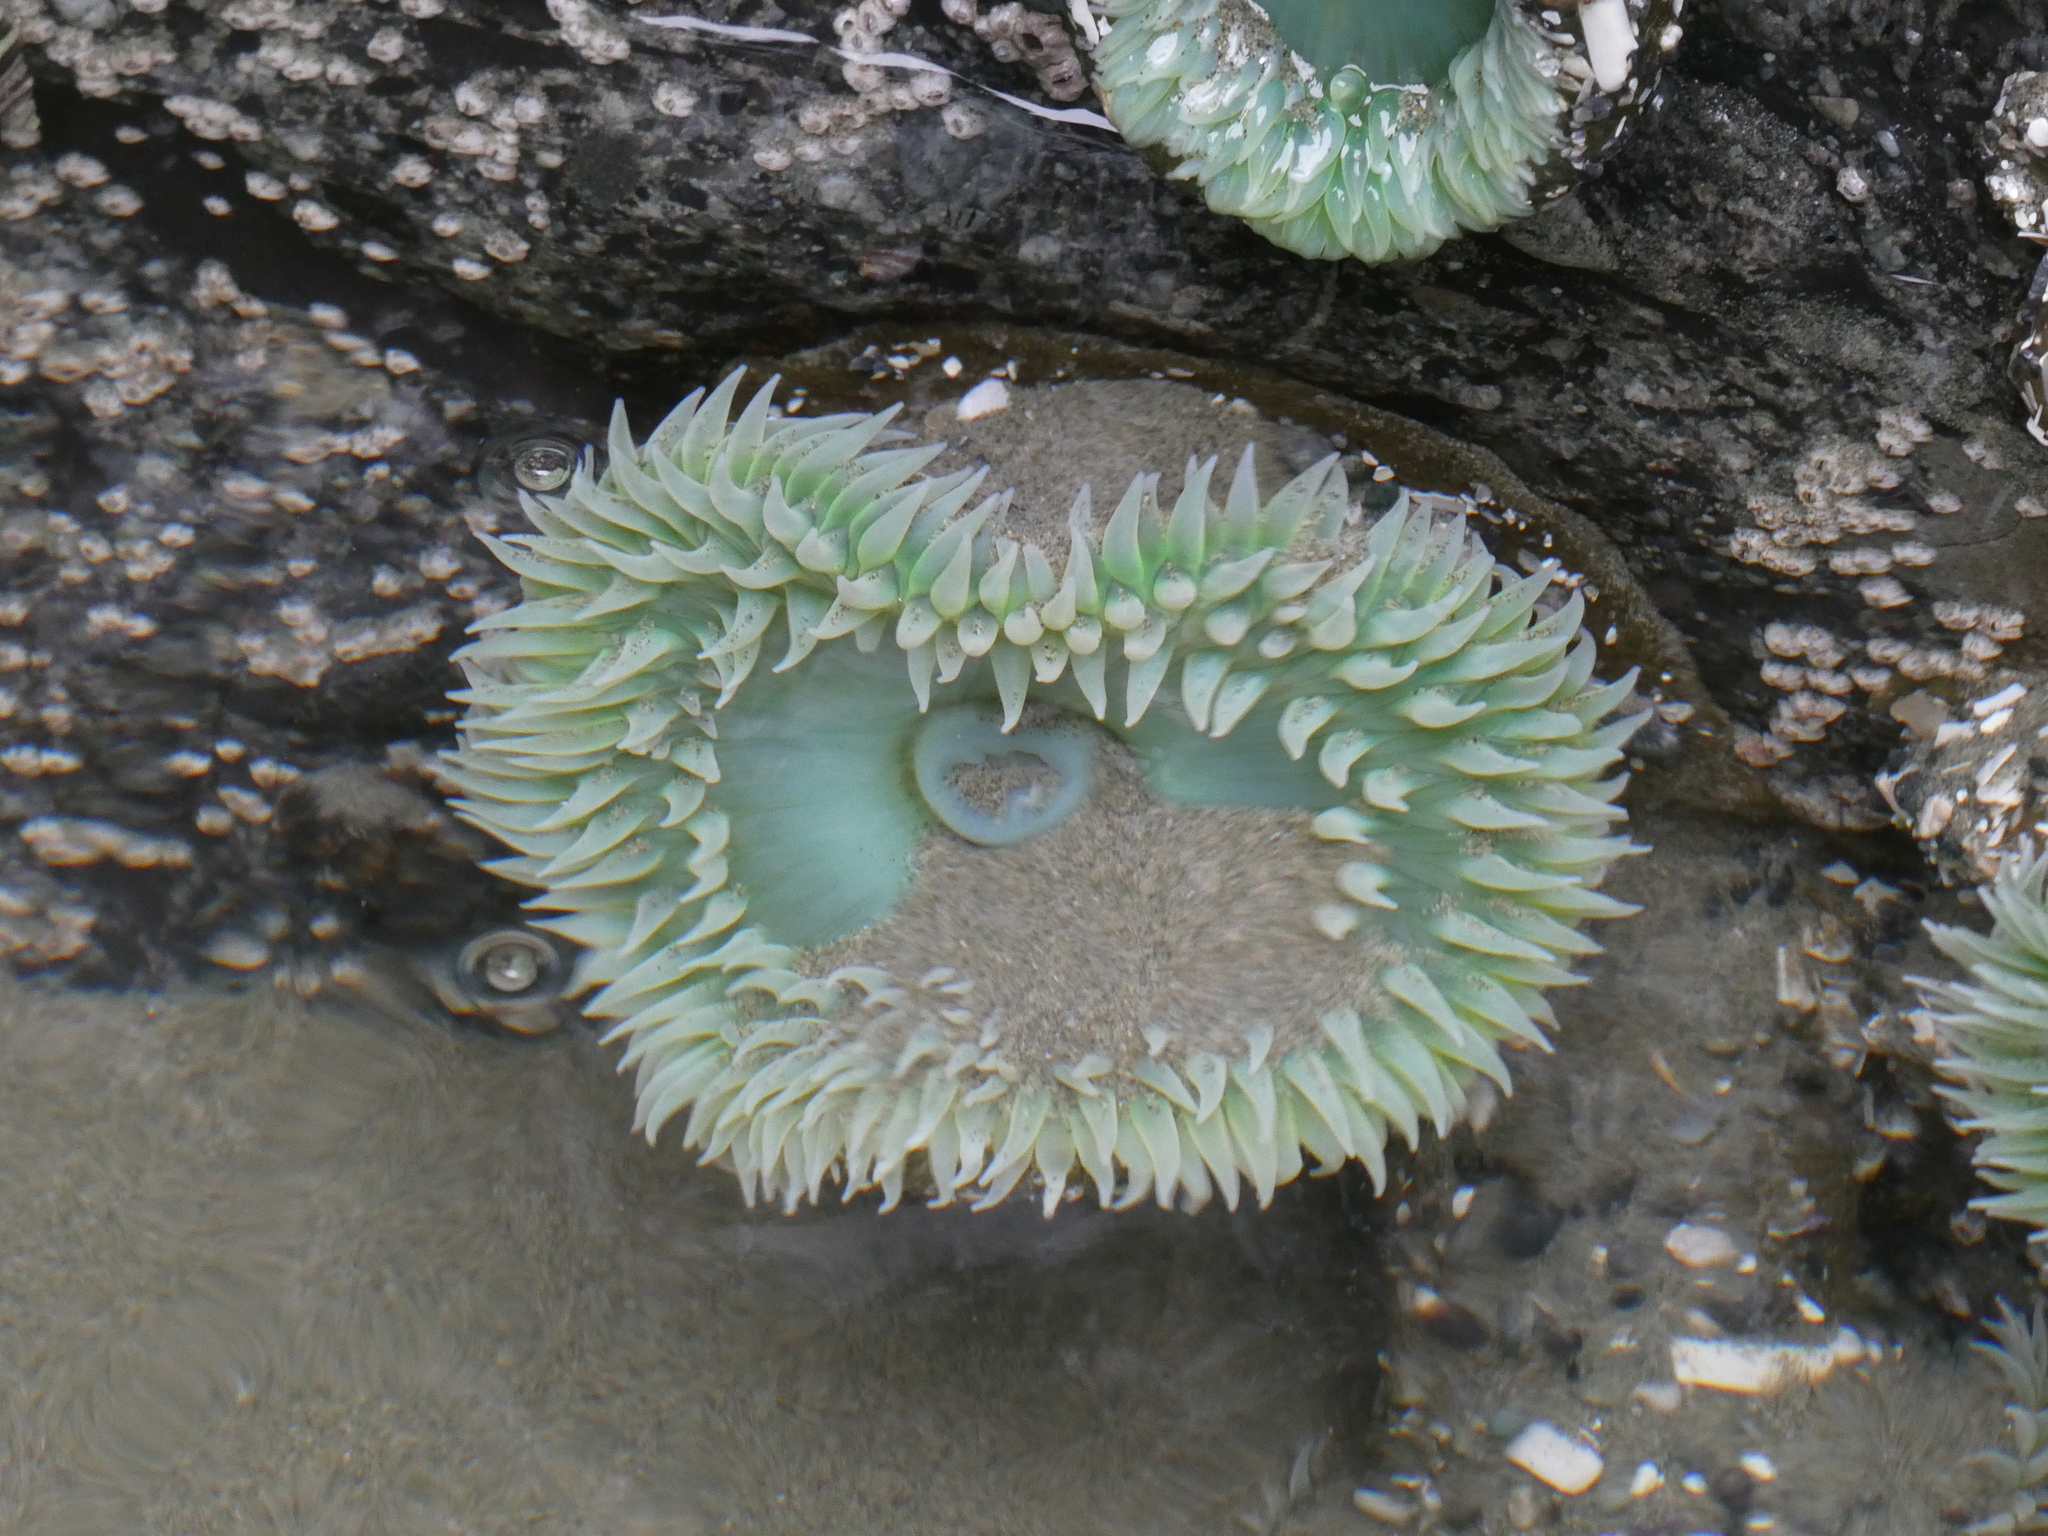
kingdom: Animalia
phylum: Cnidaria
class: Anthozoa
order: Actiniaria
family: Actiniidae
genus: Anthopleura
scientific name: Anthopleura xanthogrammica
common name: Giant green anemone
